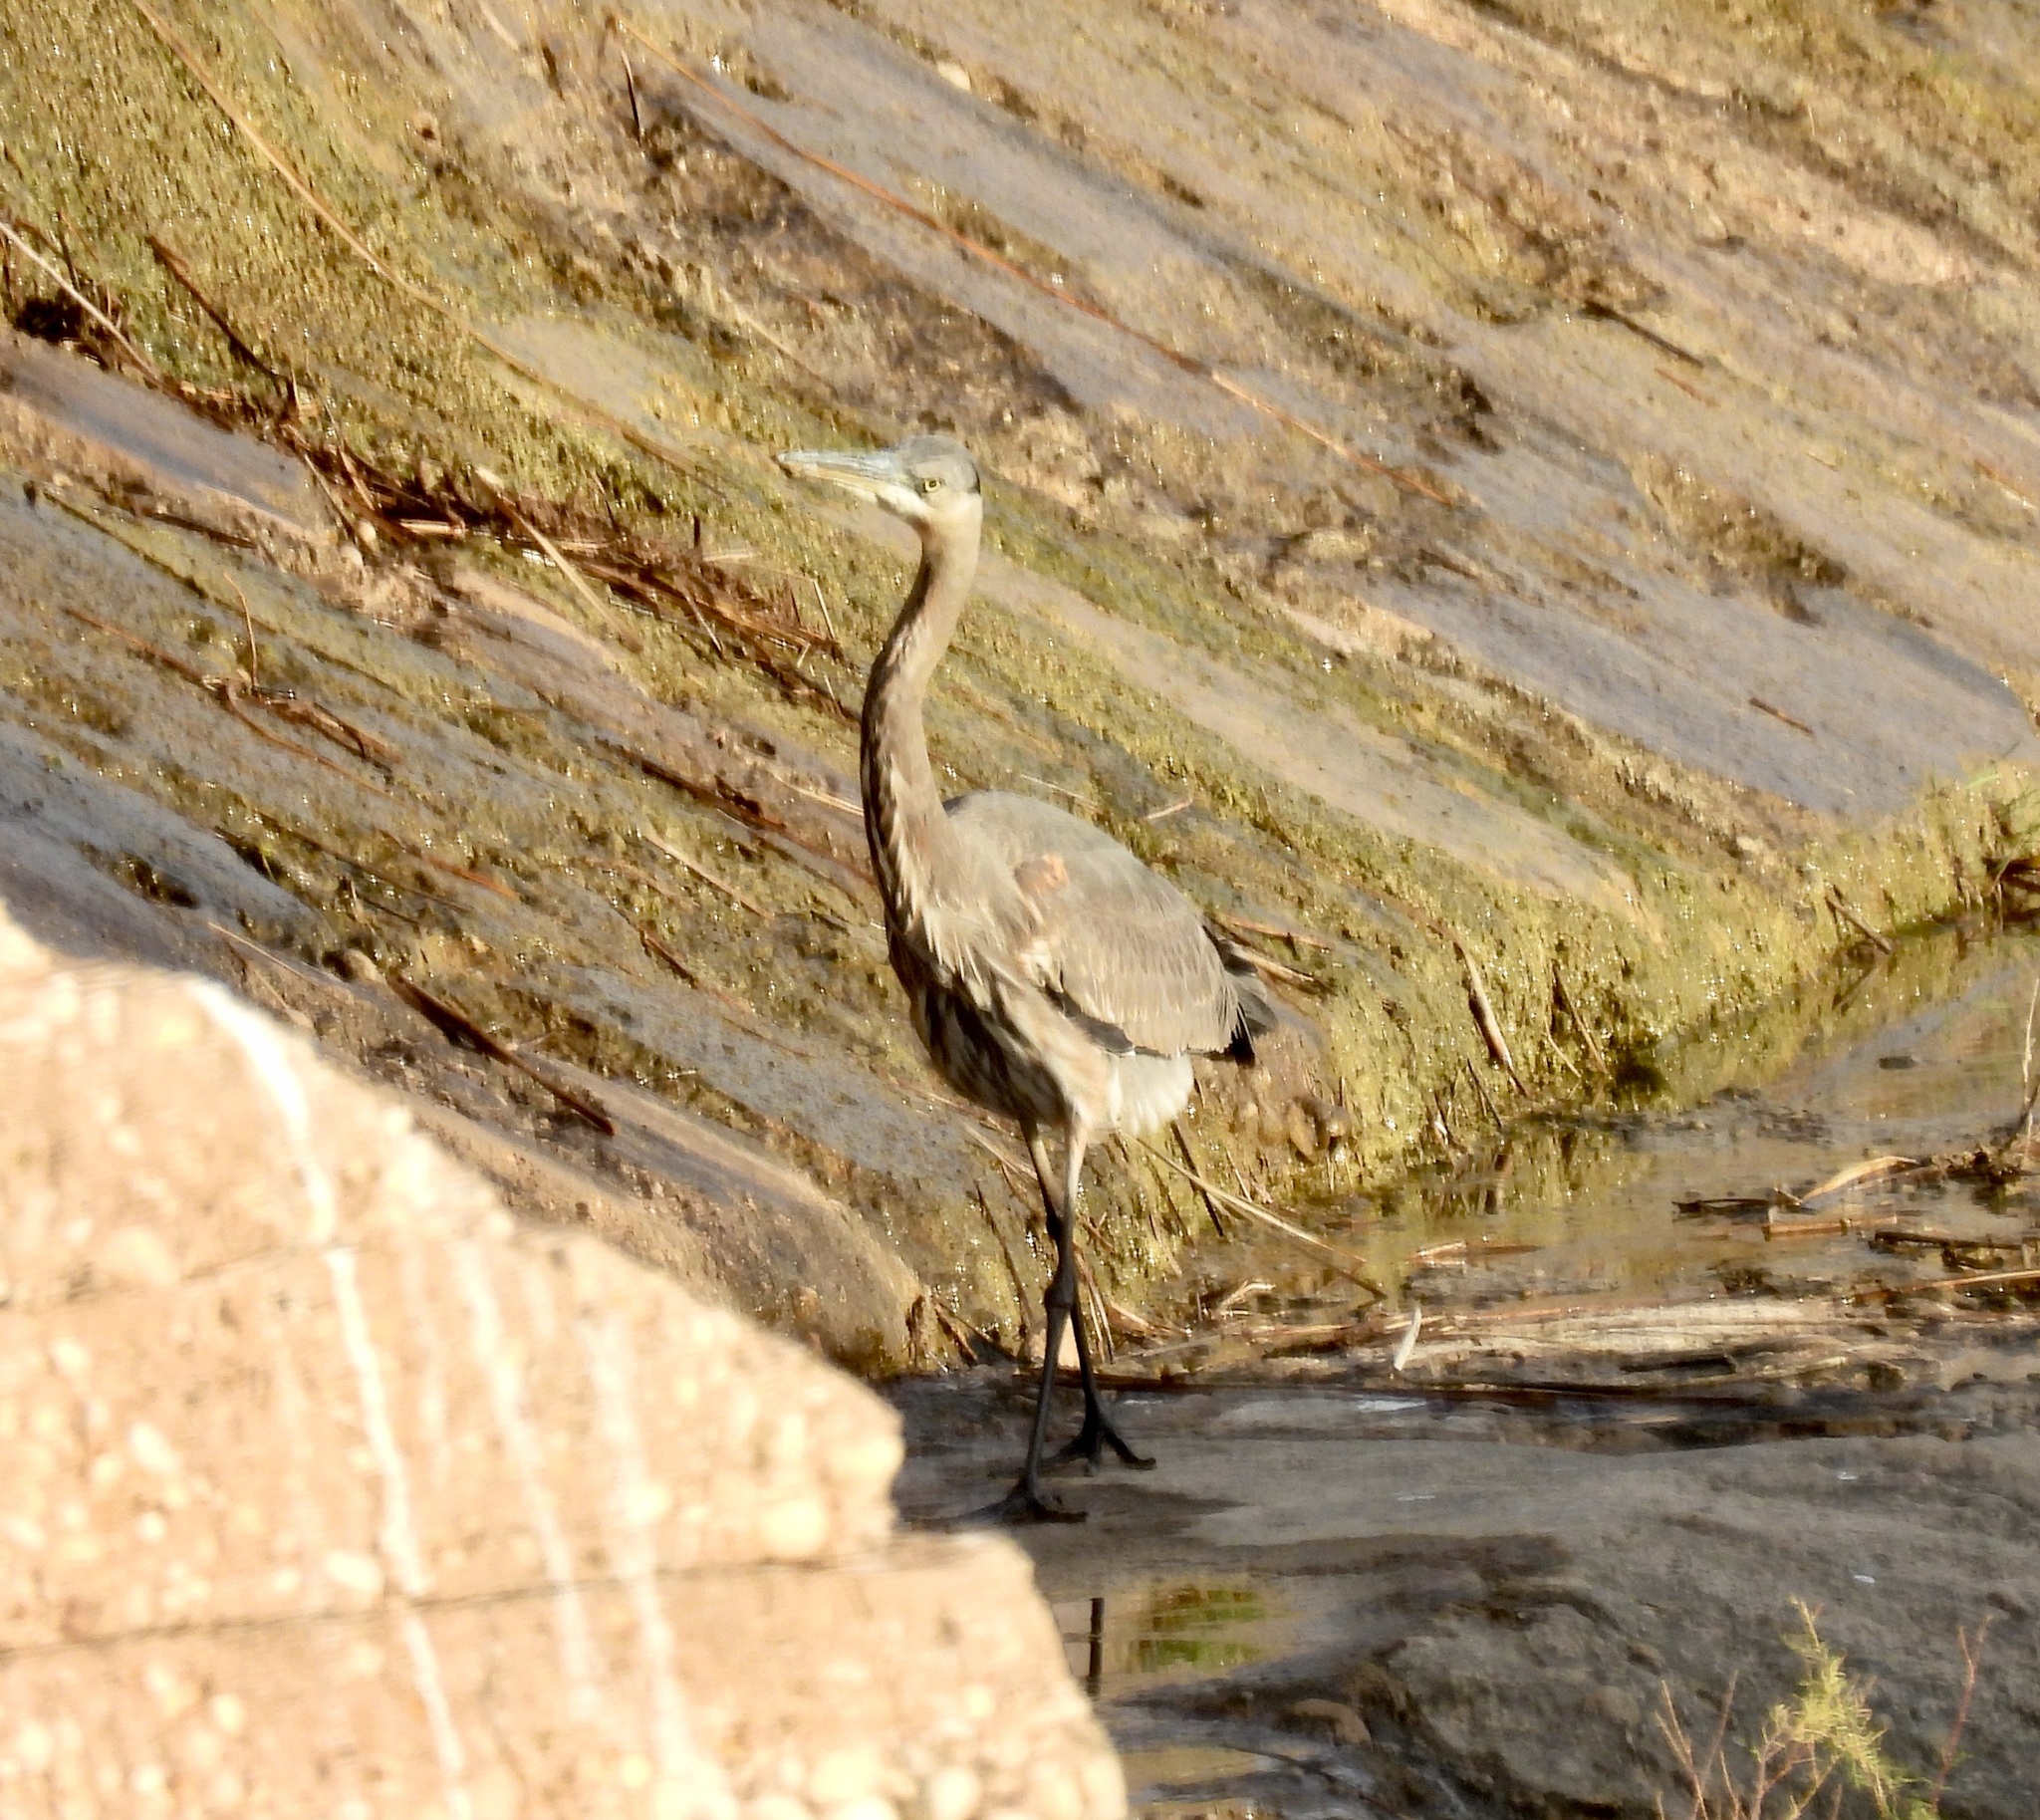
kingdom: Animalia
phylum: Chordata
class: Aves
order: Pelecaniformes
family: Ardeidae
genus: Ardea
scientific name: Ardea herodias
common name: Great blue heron
